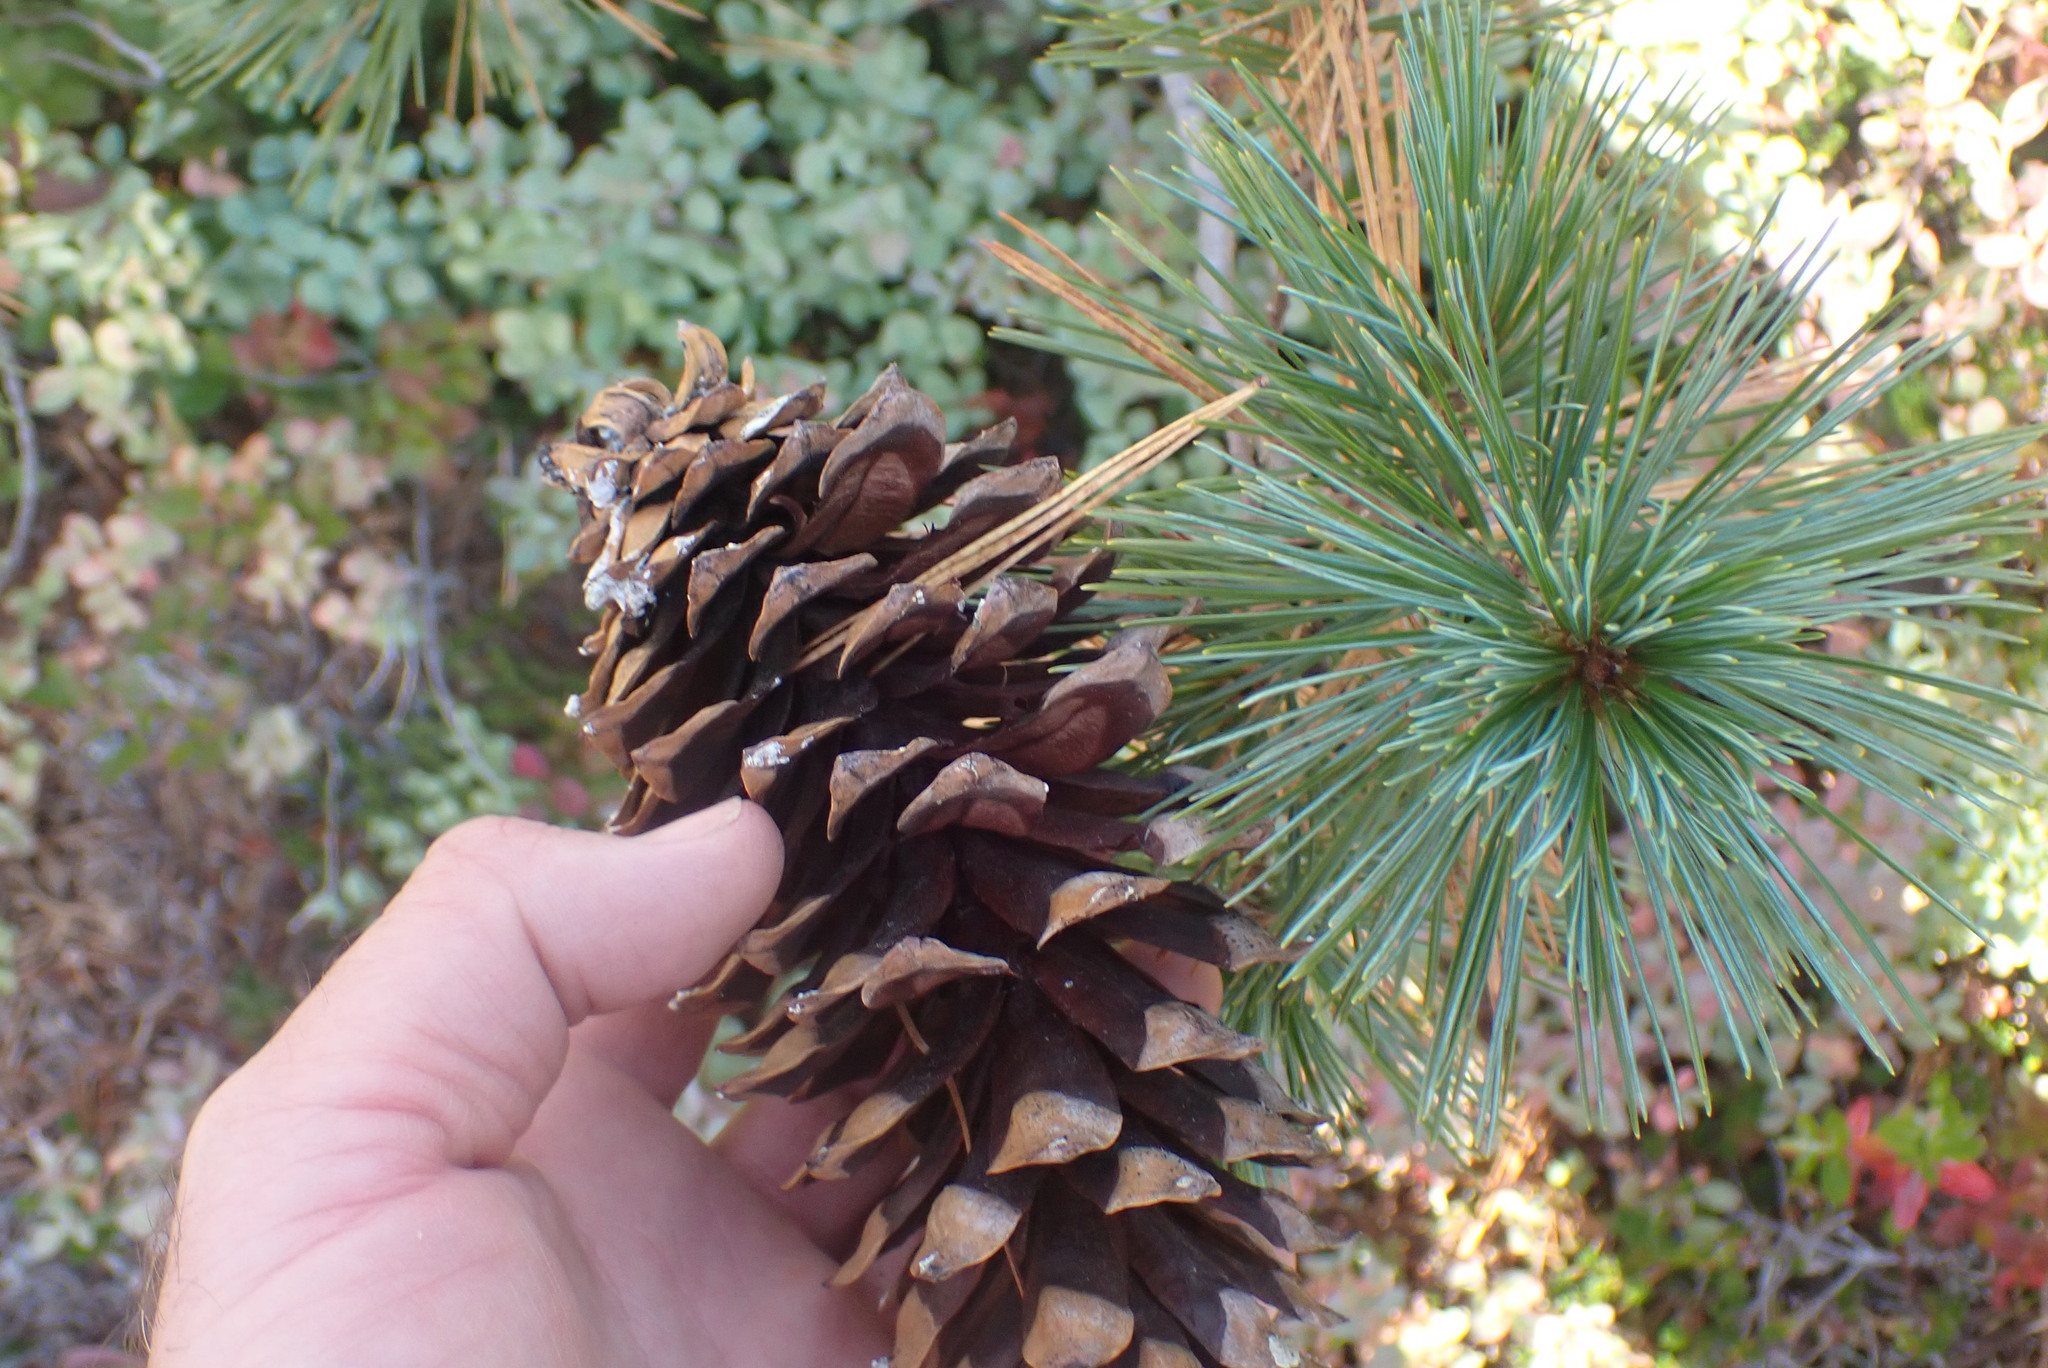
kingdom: Plantae
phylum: Tracheophyta
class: Pinopsida
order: Pinales
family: Pinaceae
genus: Pinus
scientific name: Pinus monticola
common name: Western white pine
